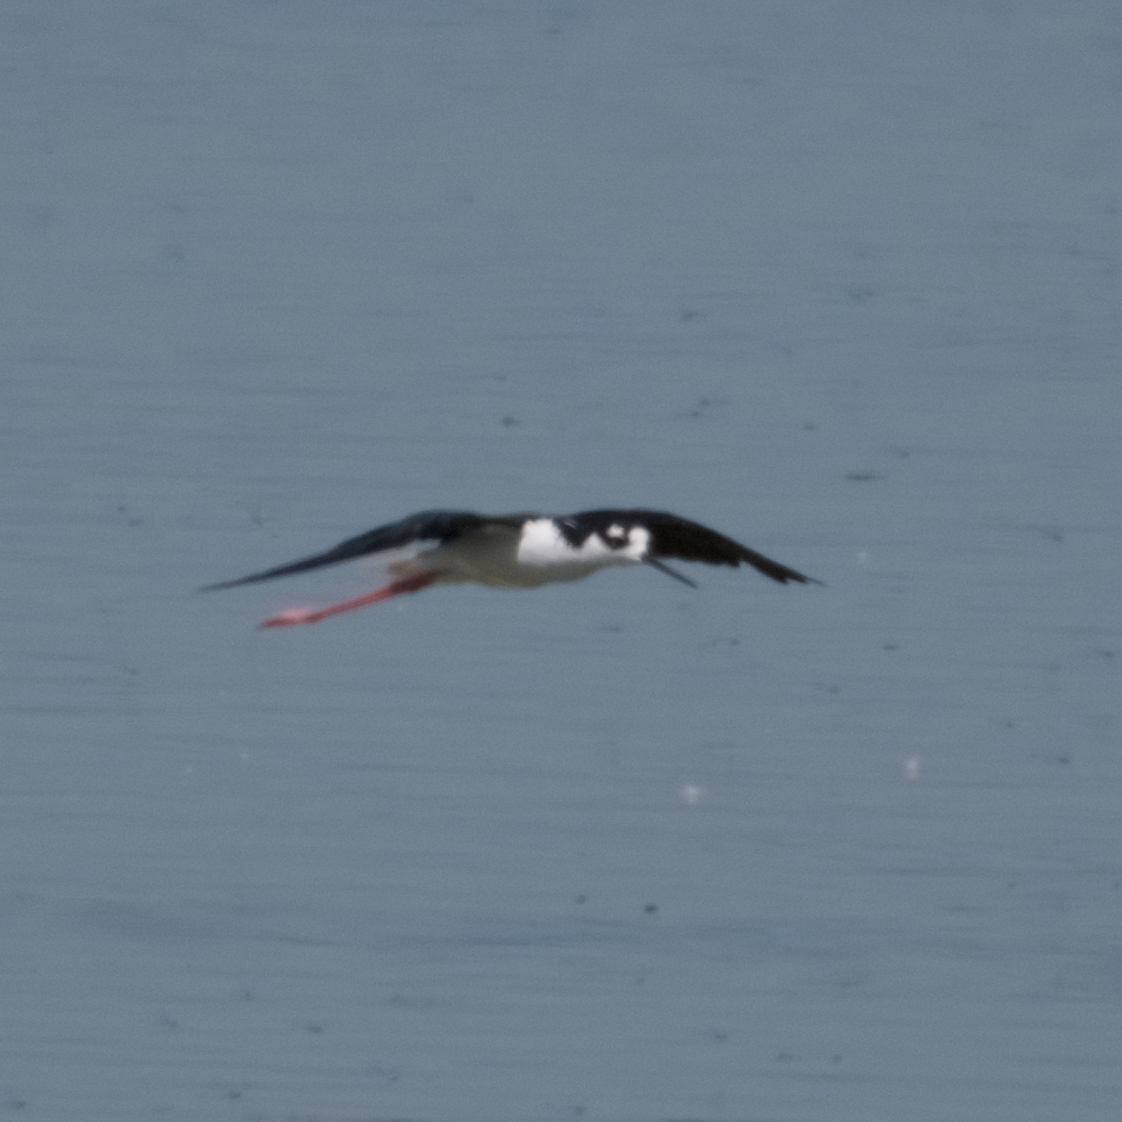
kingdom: Animalia
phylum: Chordata
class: Aves
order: Charadriiformes
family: Recurvirostridae
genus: Himantopus
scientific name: Himantopus mexicanus
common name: Black-necked stilt
